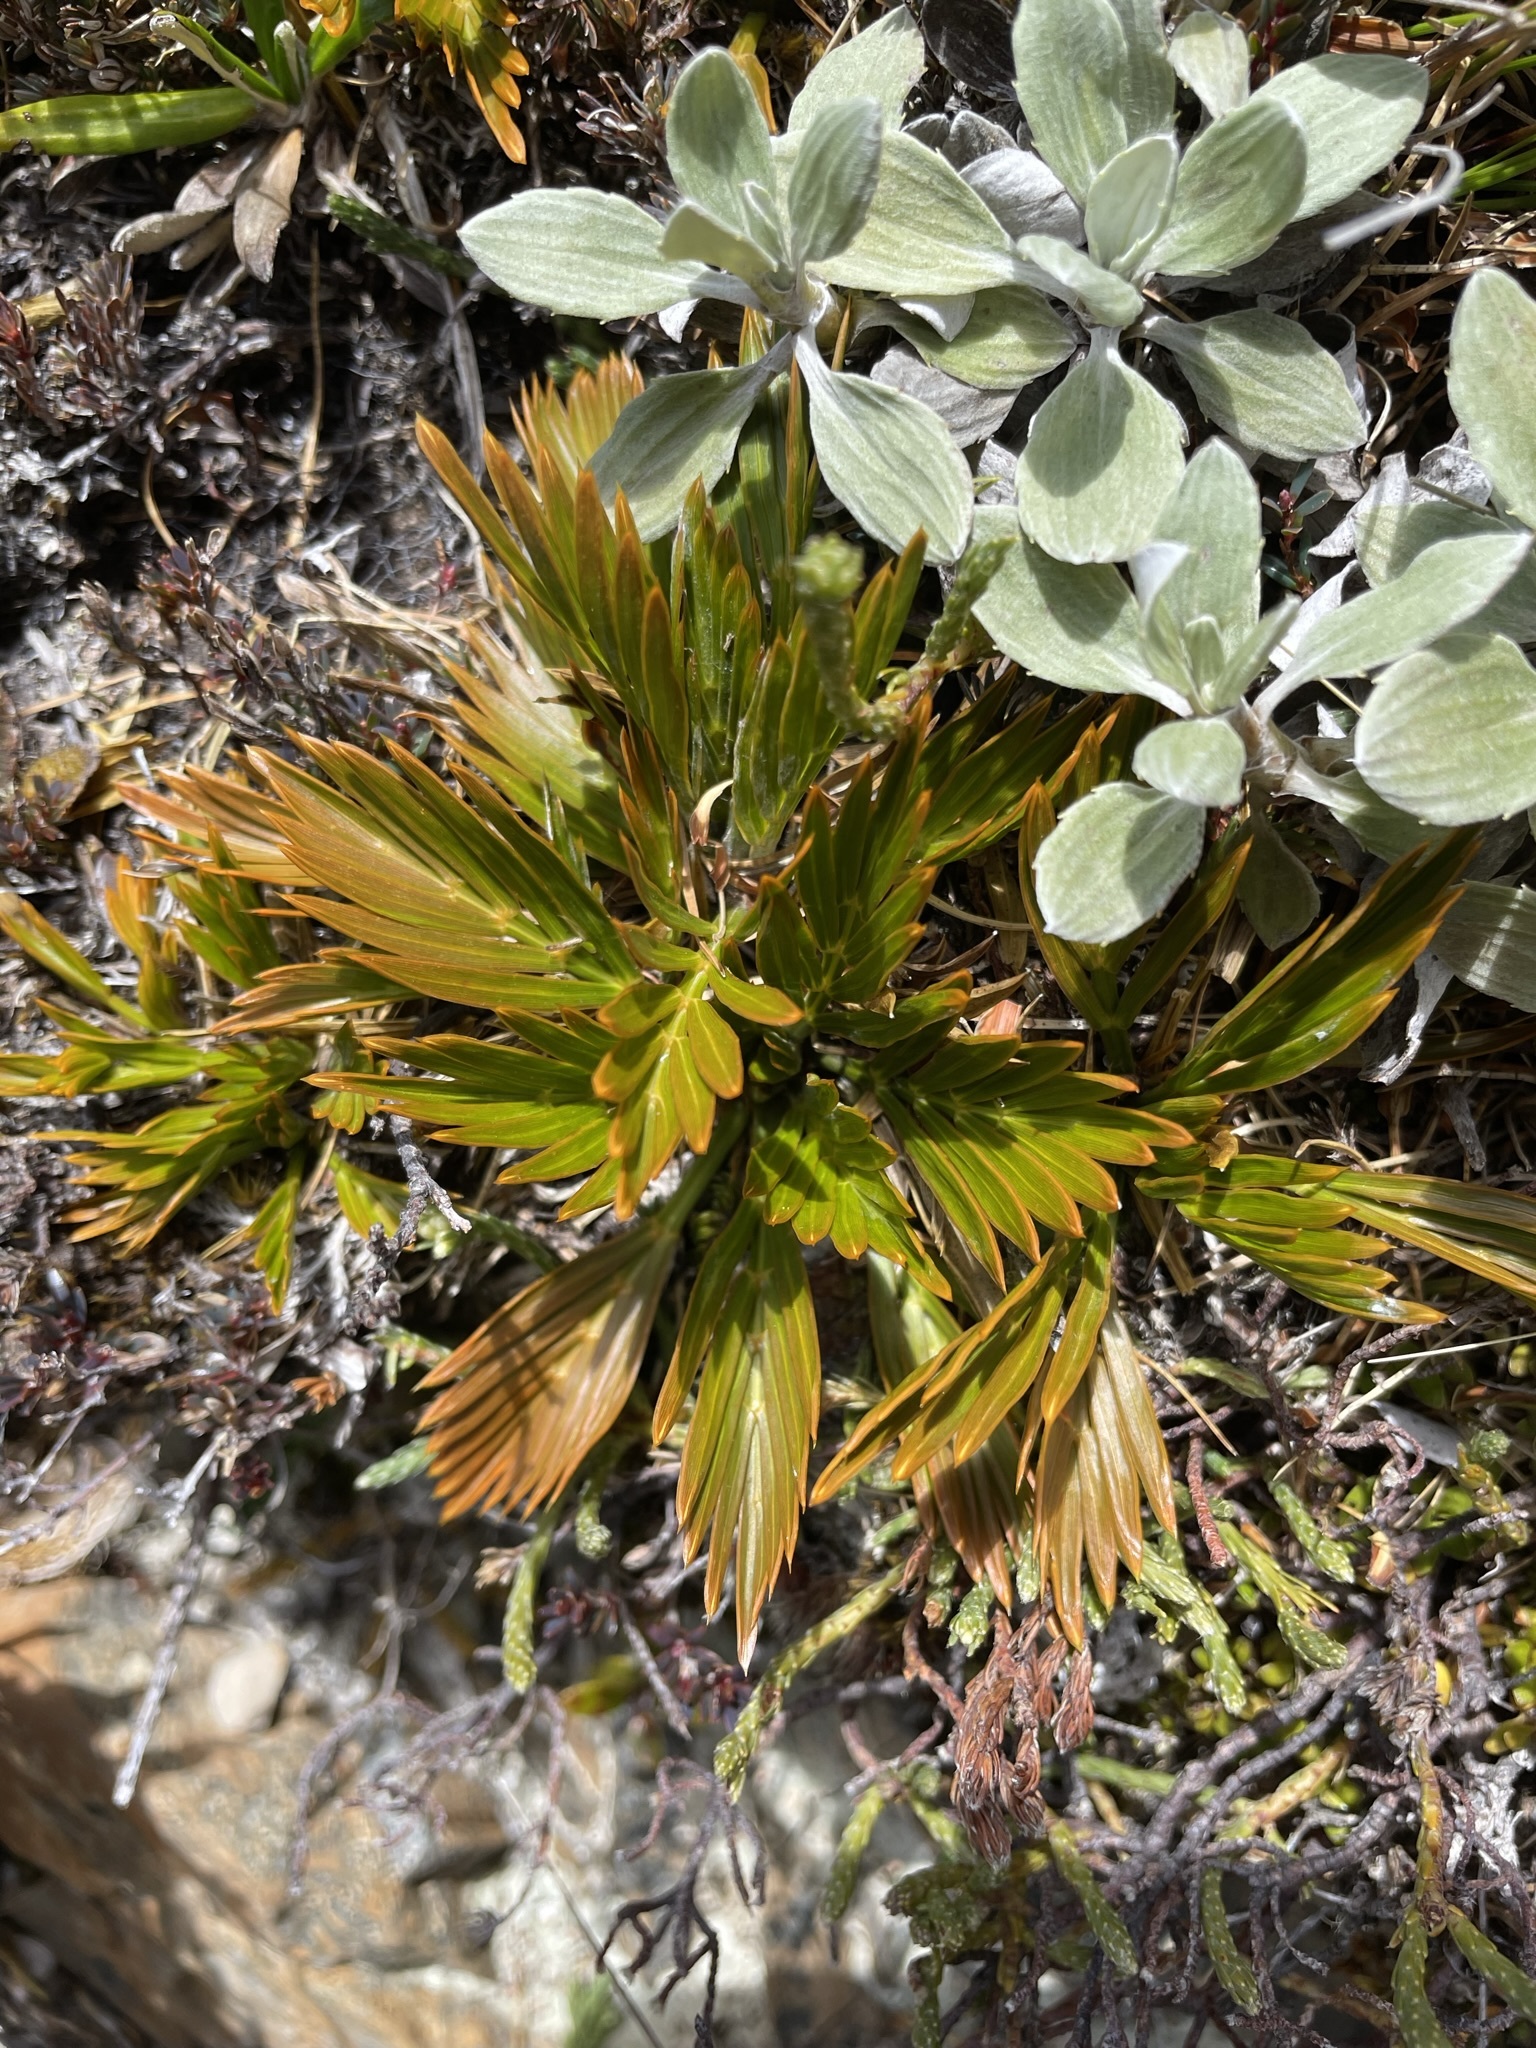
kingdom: Plantae
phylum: Tracheophyta
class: Magnoliopsida
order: Apiales
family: Apiaceae
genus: Aciphylla
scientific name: Aciphylla similis
